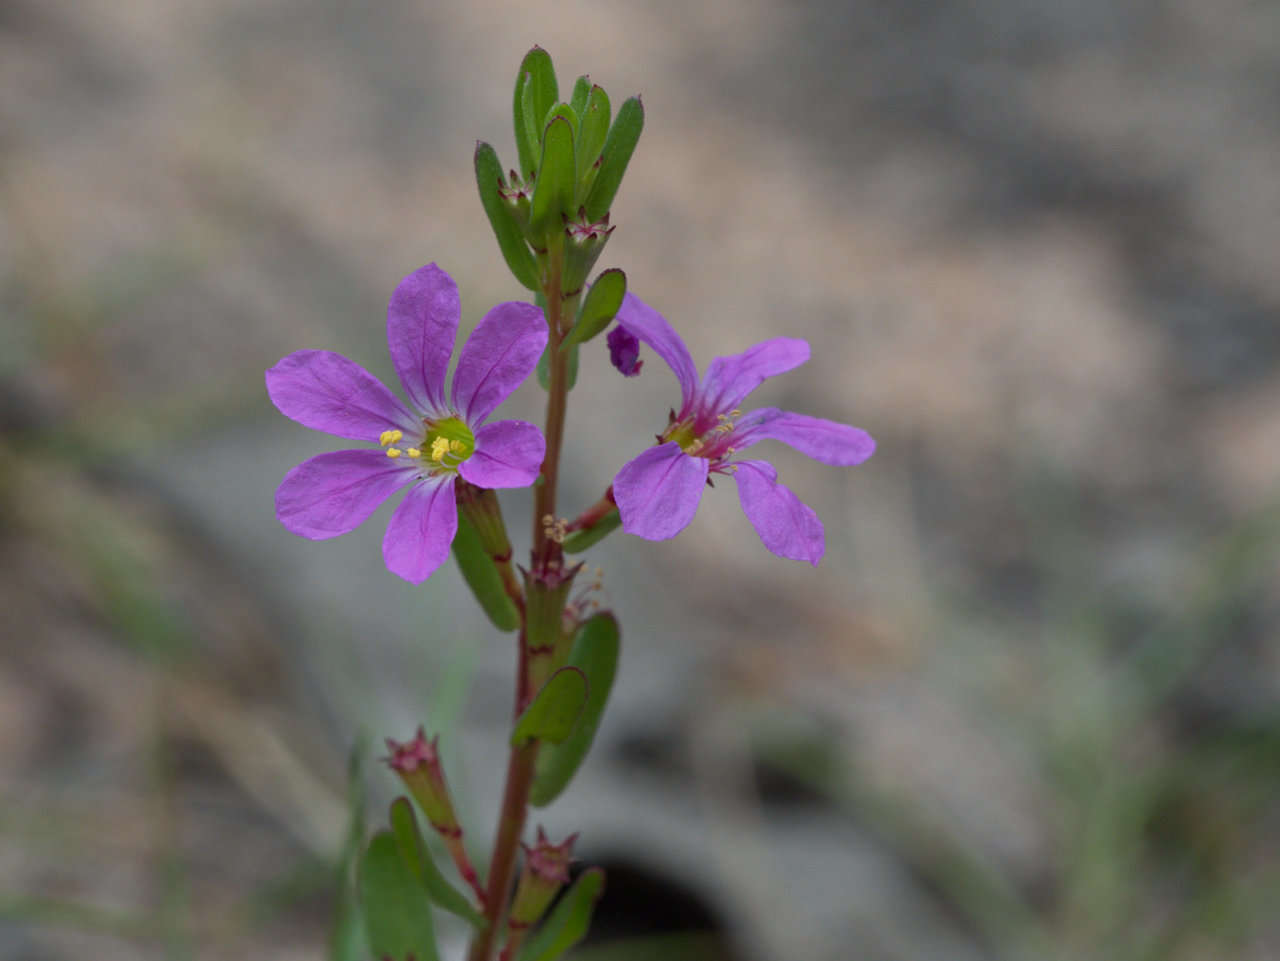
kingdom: Plantae
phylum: Tracheophyta
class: Magnoliopsida
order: Myrtales
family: Lythraceae
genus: Lythrum
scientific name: Lythrum junceum
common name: False grass-poly
